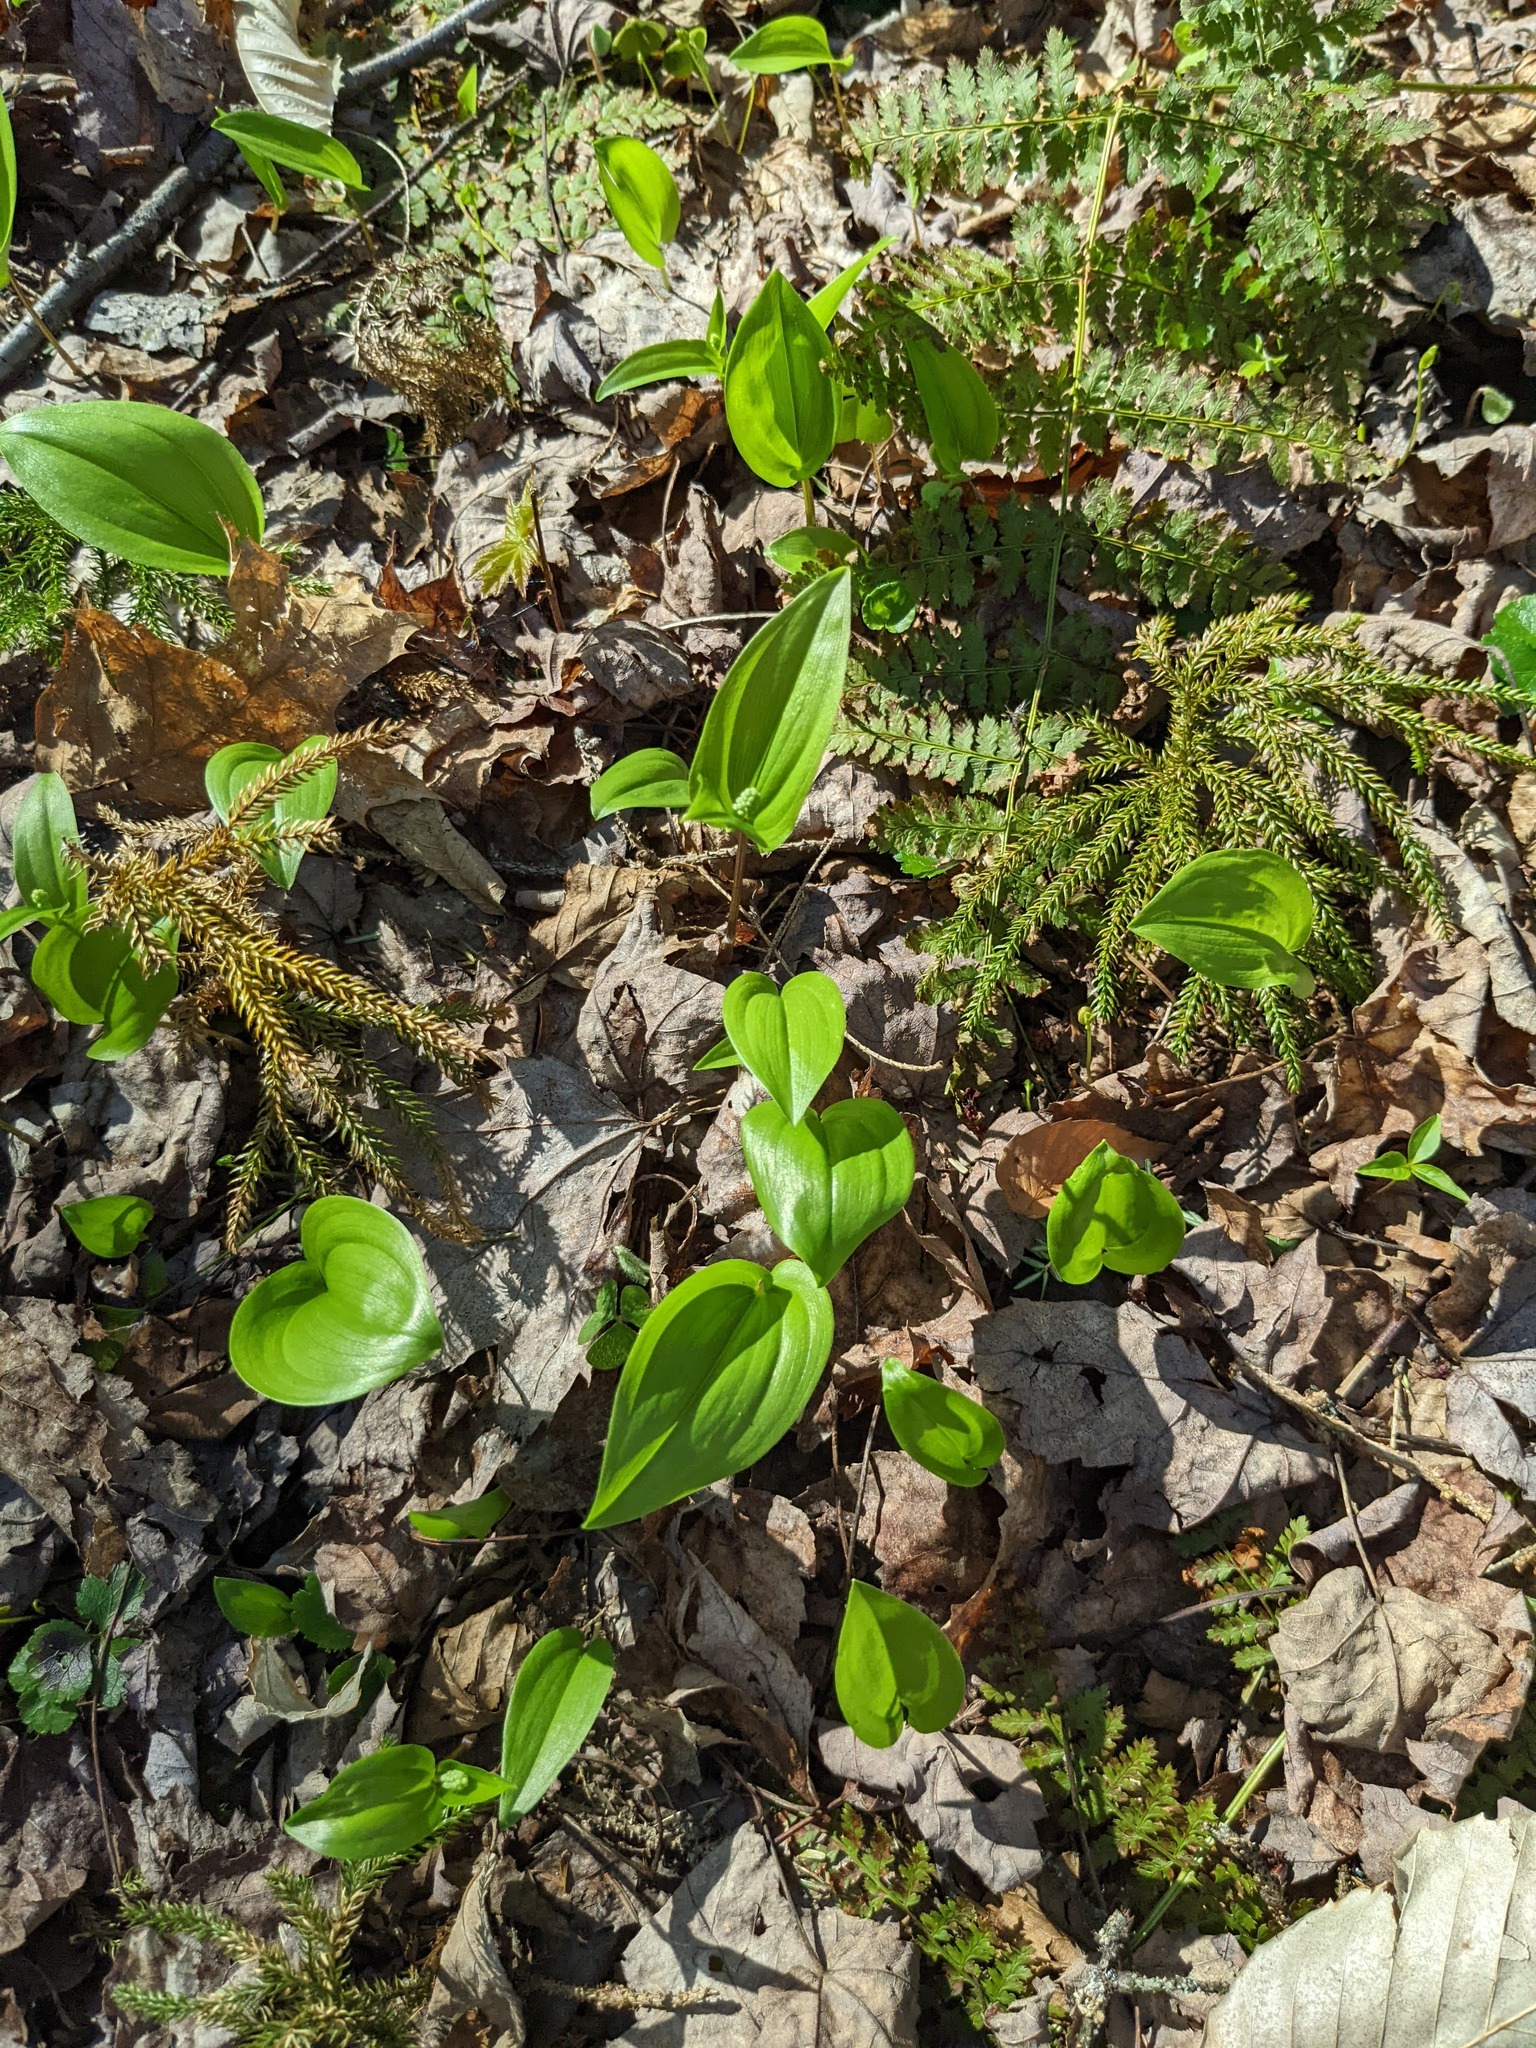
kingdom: Plantae
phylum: Tracheophyta
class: Liliopsida
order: Asparagales
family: Asparagaceae
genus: Maianthemum
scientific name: Maianthemum canadense
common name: False lily-of-the-valley
